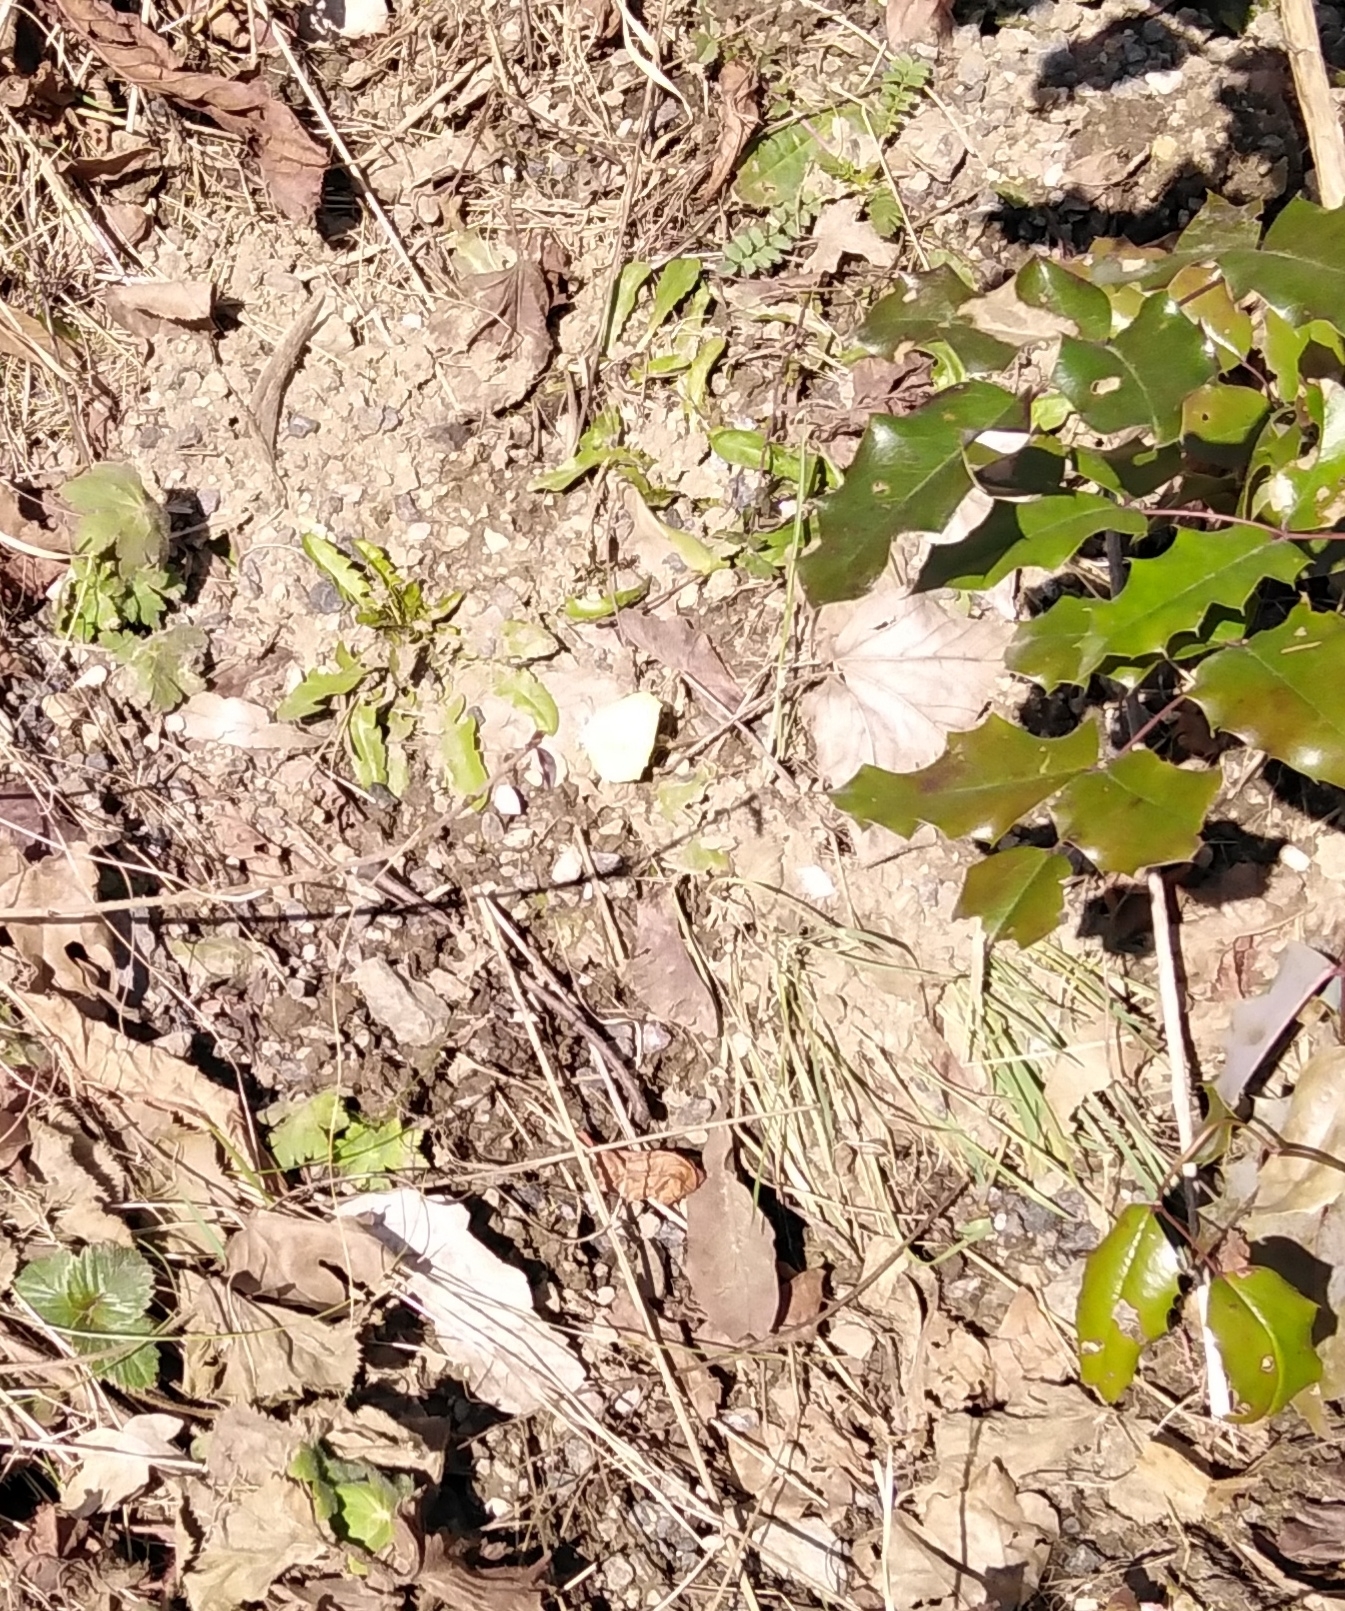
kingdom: Animalia
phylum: Arthropoda
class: Insecta
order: Lepidoptera
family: Pieridae
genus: Gonepteryx
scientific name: Gonepteryx rhamni
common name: Brimstone
